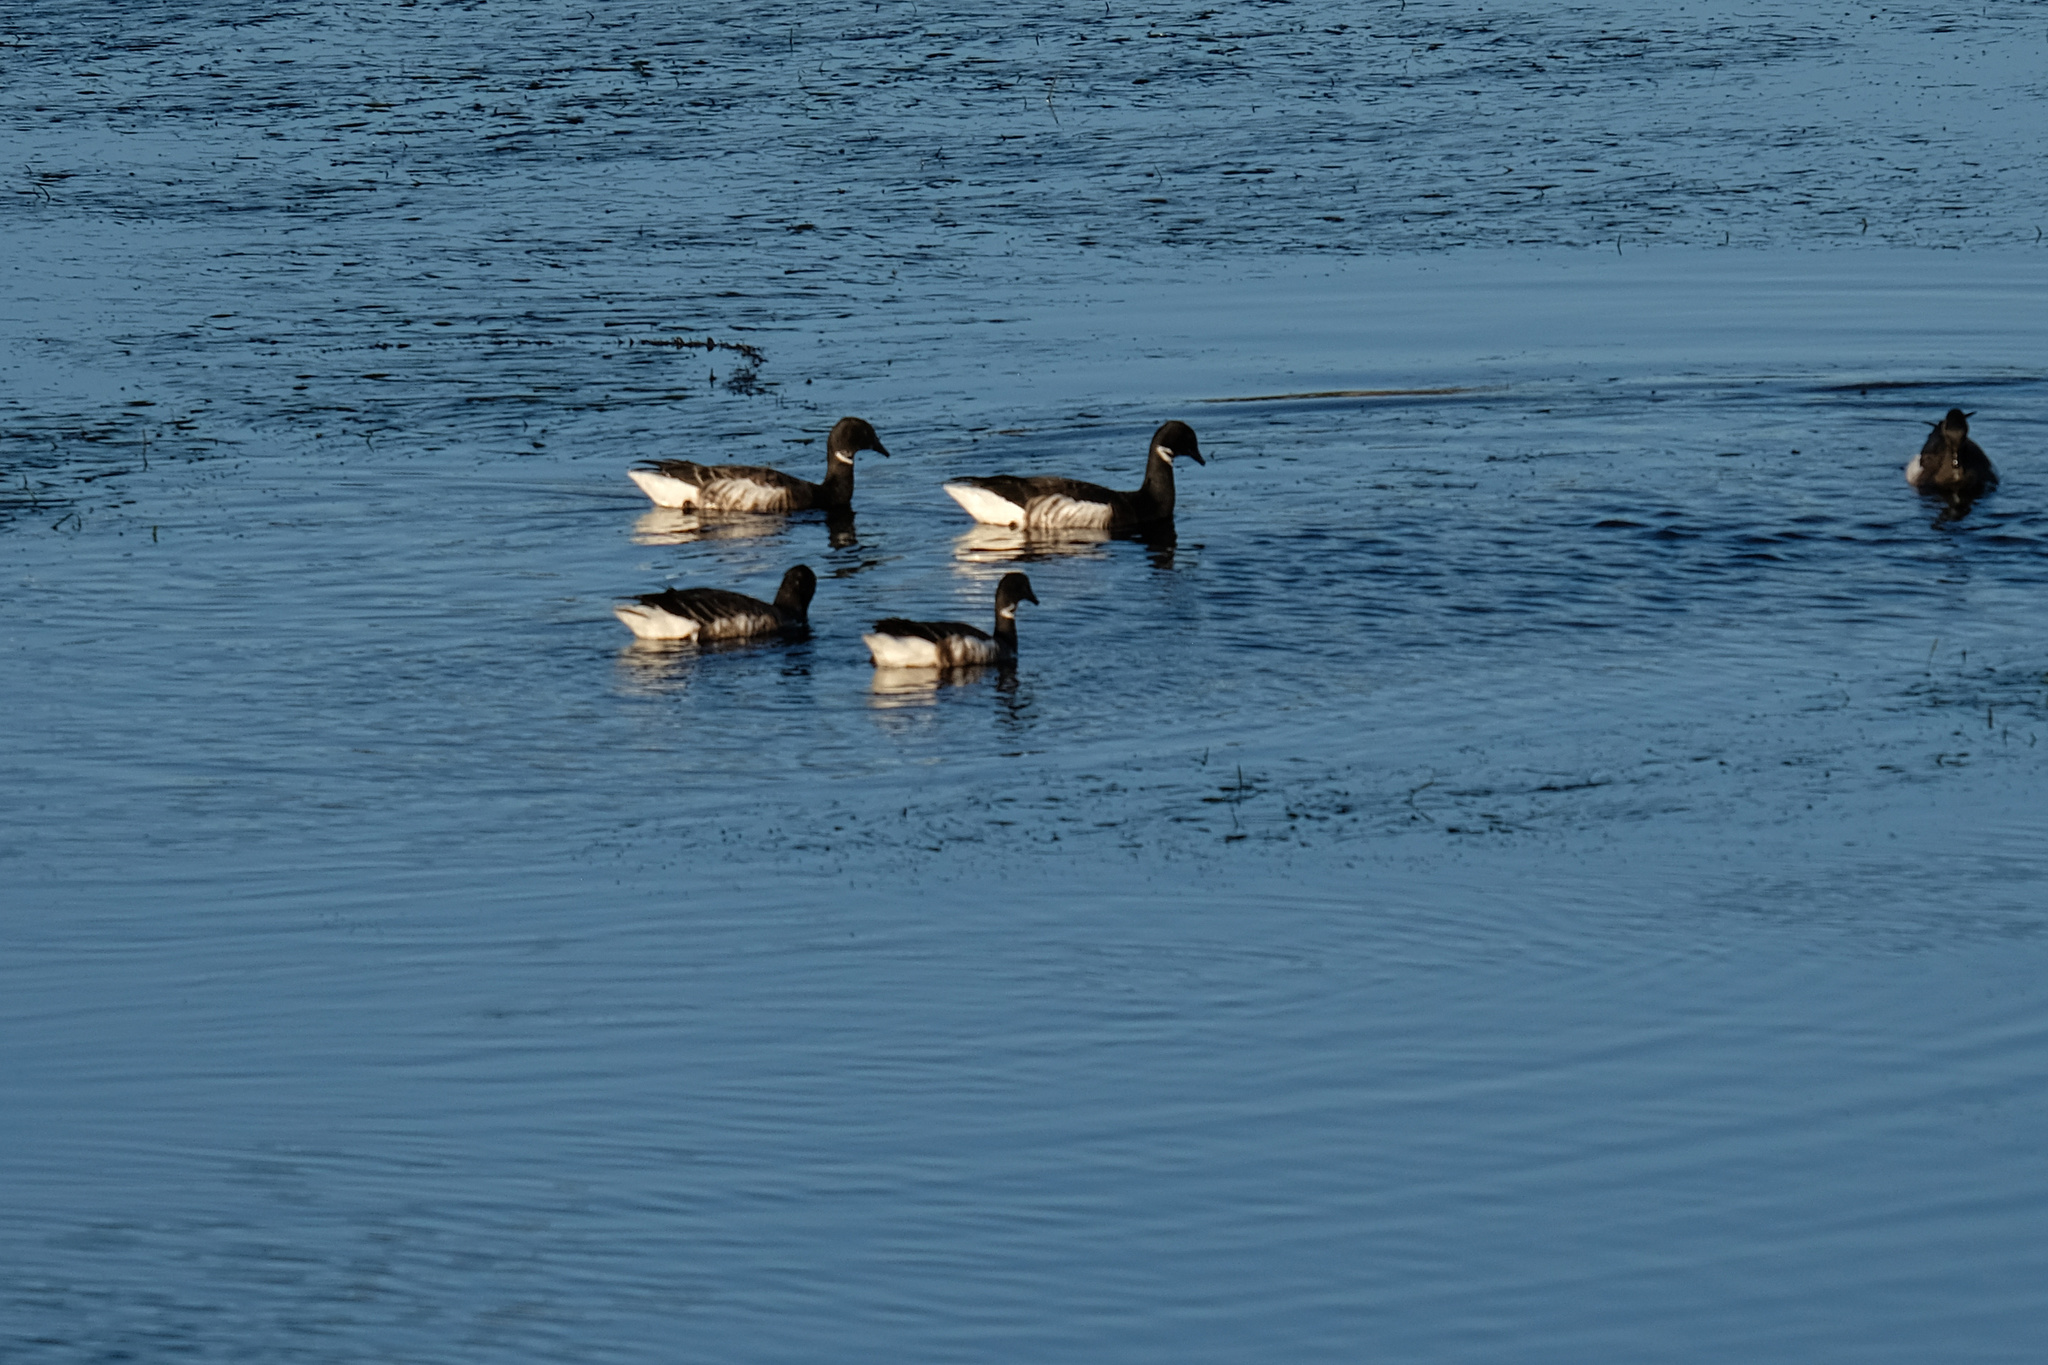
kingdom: Animalia
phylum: Chordata
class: Aves
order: Anseriformes
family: Anatidae
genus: Branta
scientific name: Branta bernicla
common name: Brant goose
